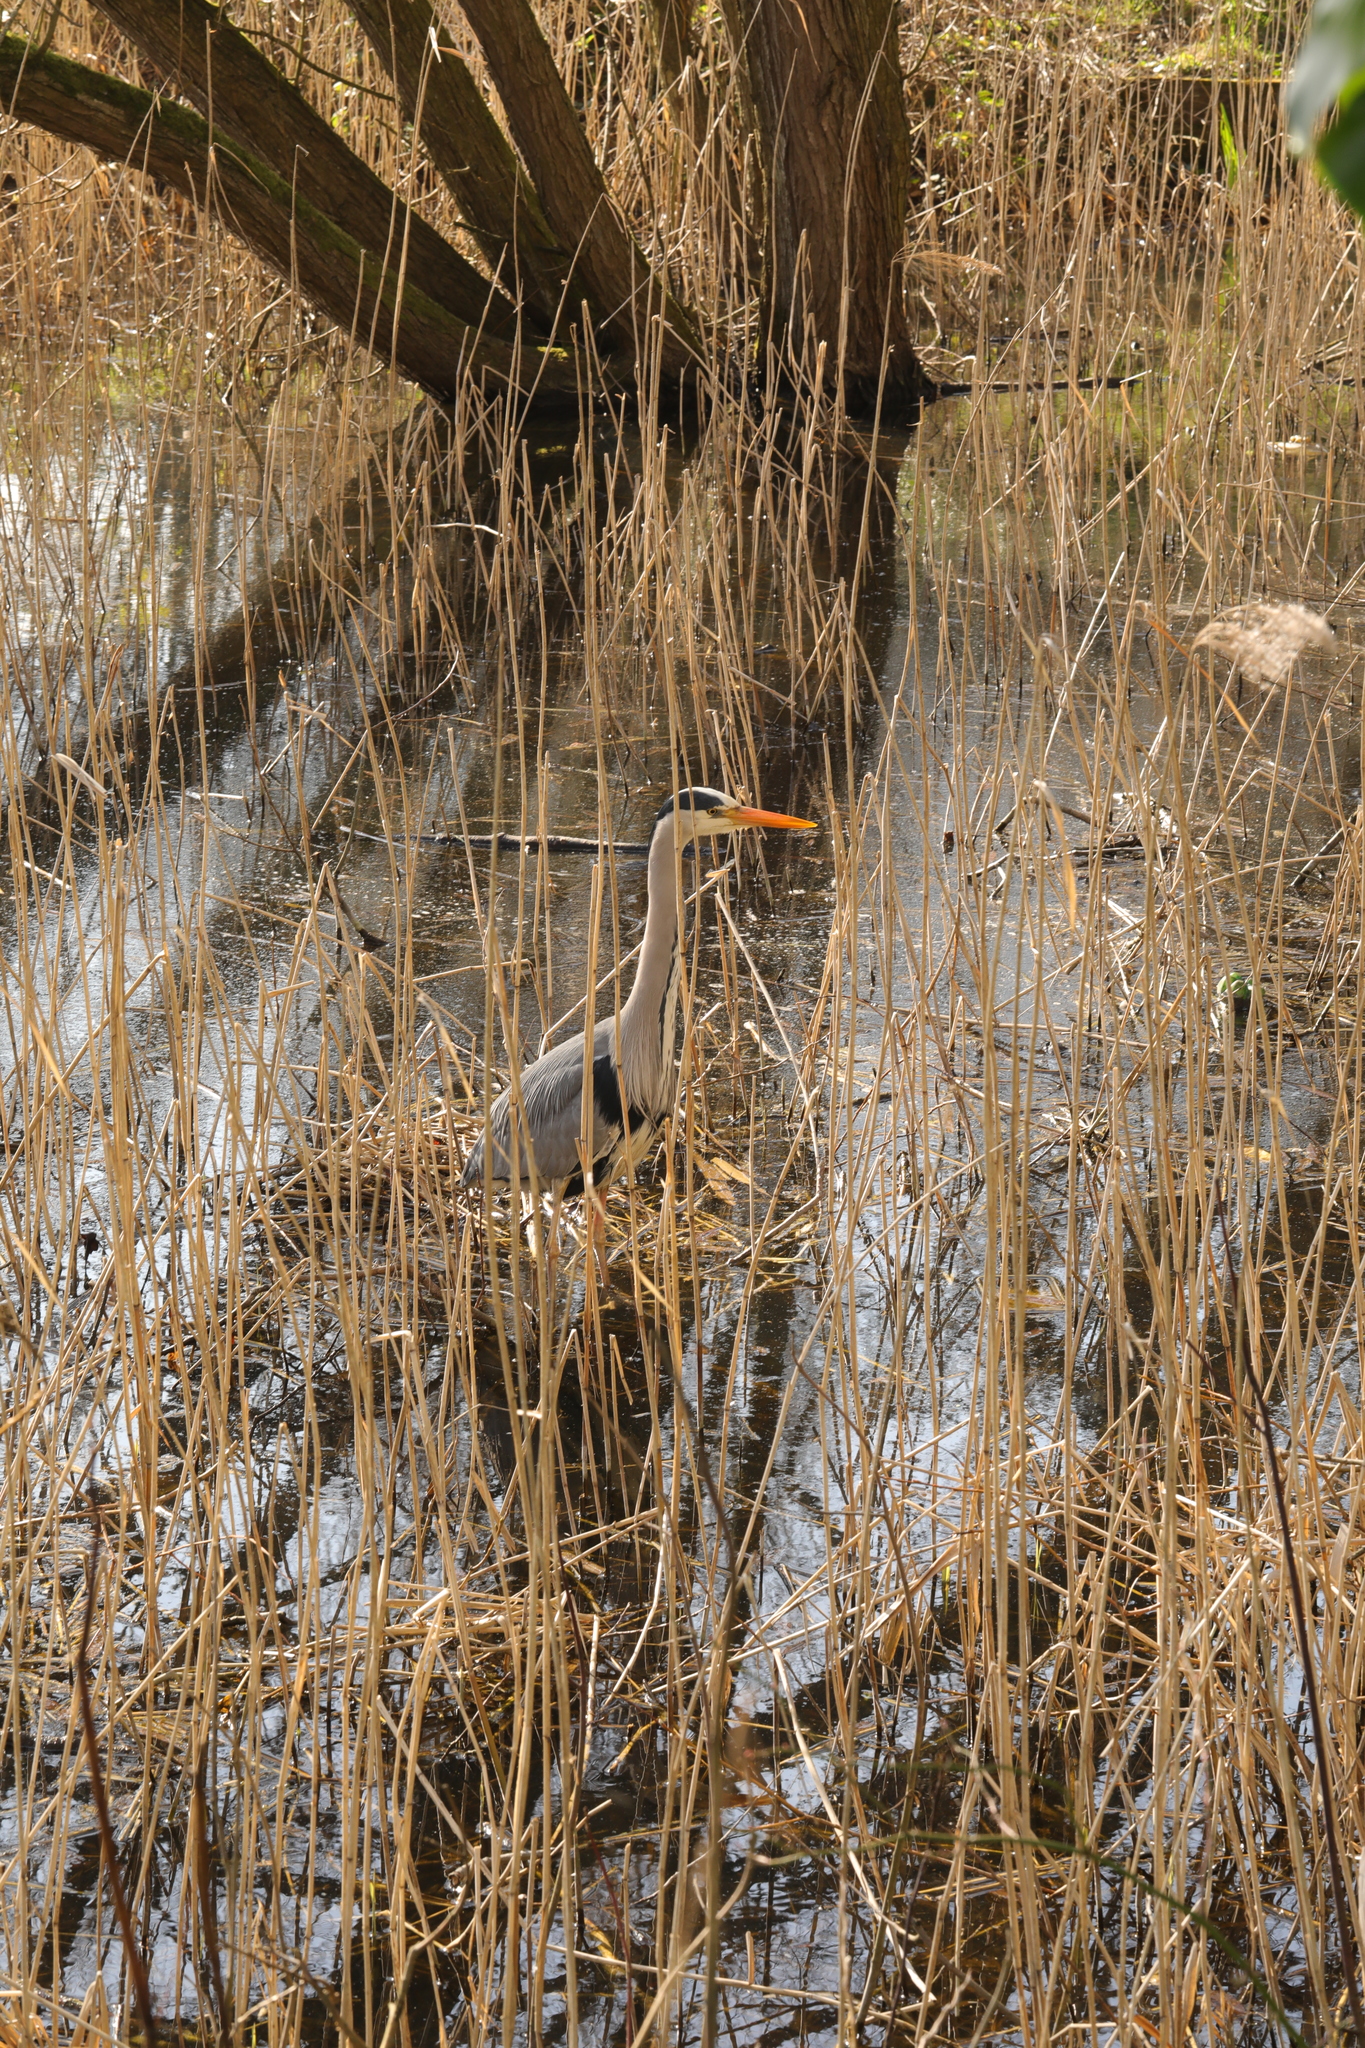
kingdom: Animalia
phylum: Chordata
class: Aves
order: Pelecaniformes
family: Ardeidae
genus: Ardea
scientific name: Ardea cinerea
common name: Grey heron
